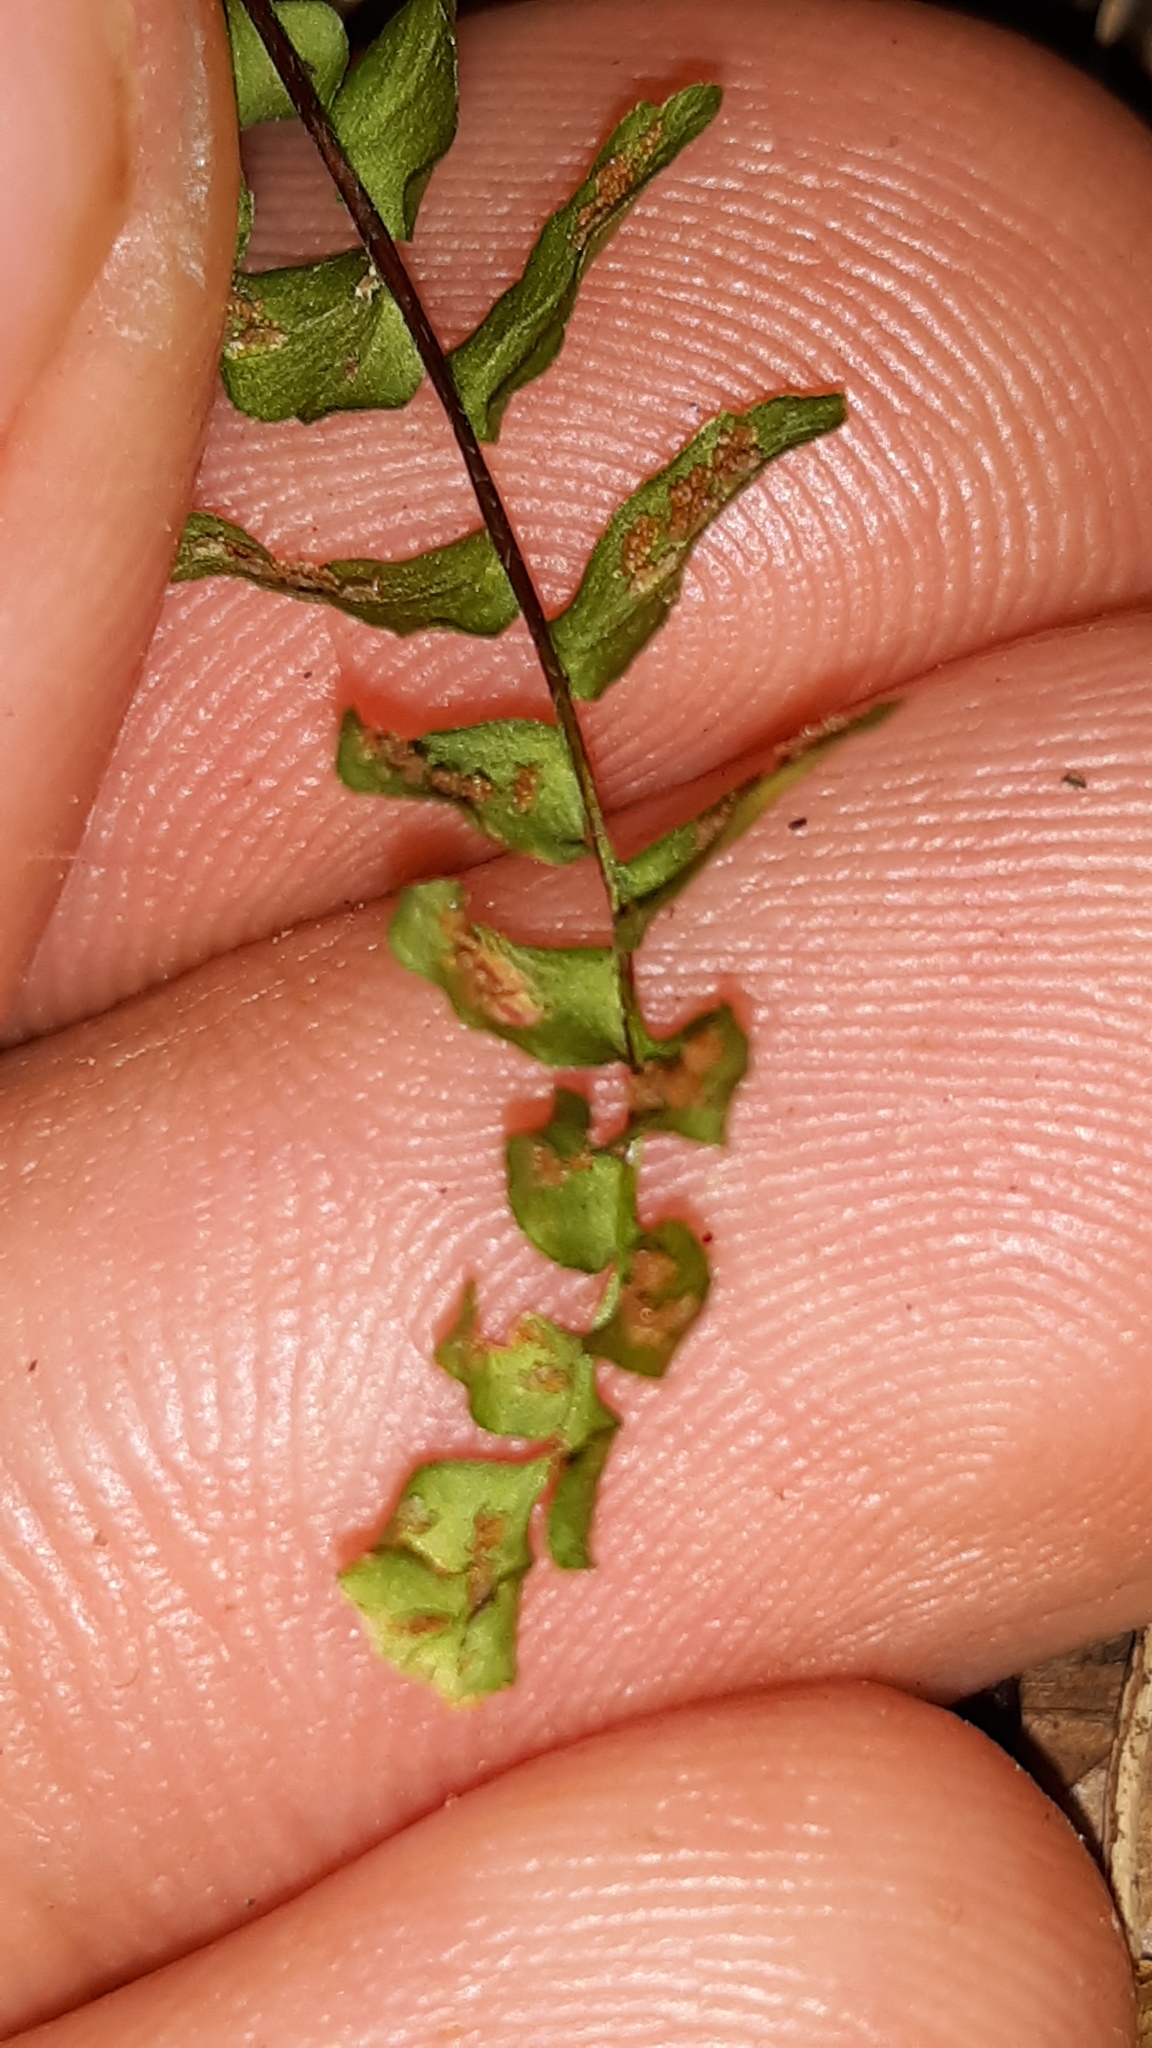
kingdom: Plantae
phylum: Tracheophyta
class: Polypodiopsida
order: Polypodiales
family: Aspleniaceae
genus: Asplenium
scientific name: Asplenium platyneuron
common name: Ebony spleenwort
